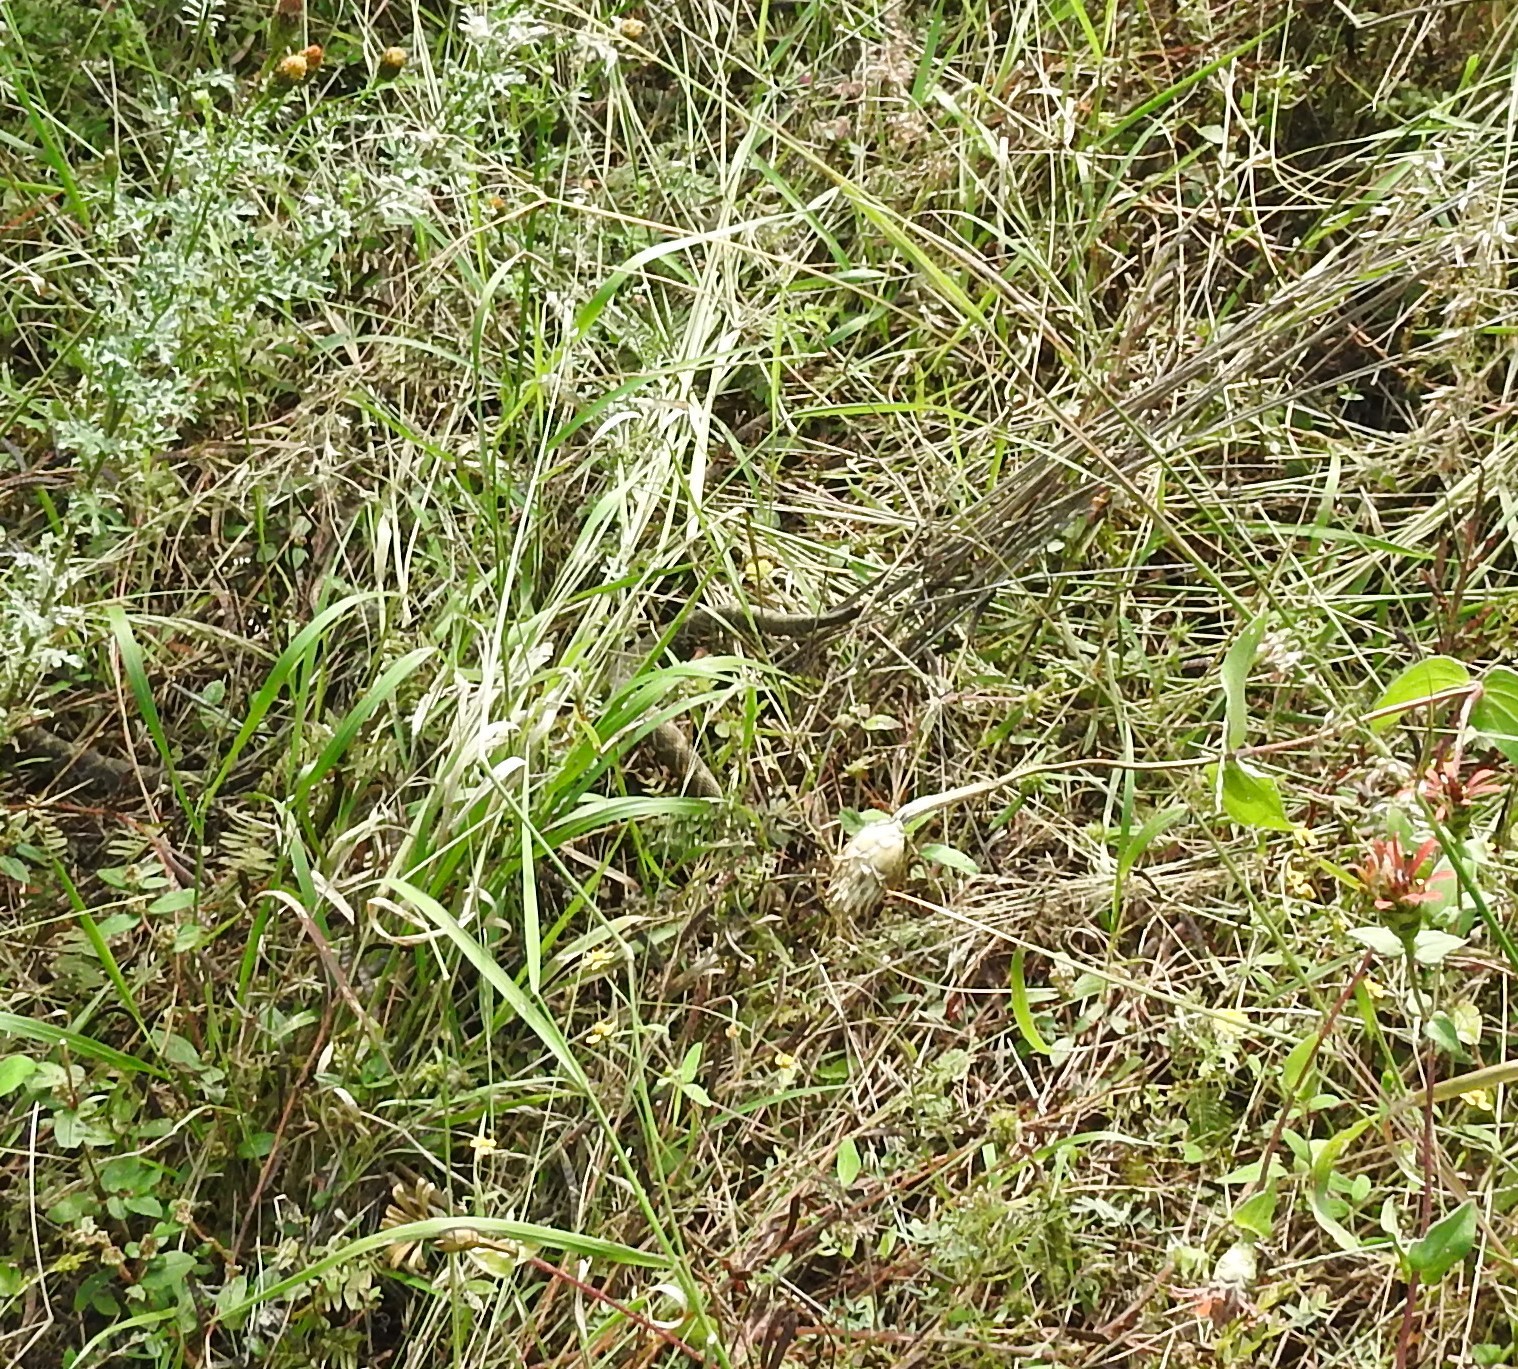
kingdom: Animalia
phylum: Chordata
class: Squamata
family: Viperidae
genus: Crotalus
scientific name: Crotalus molossus
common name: Black tailed rattlesnake
